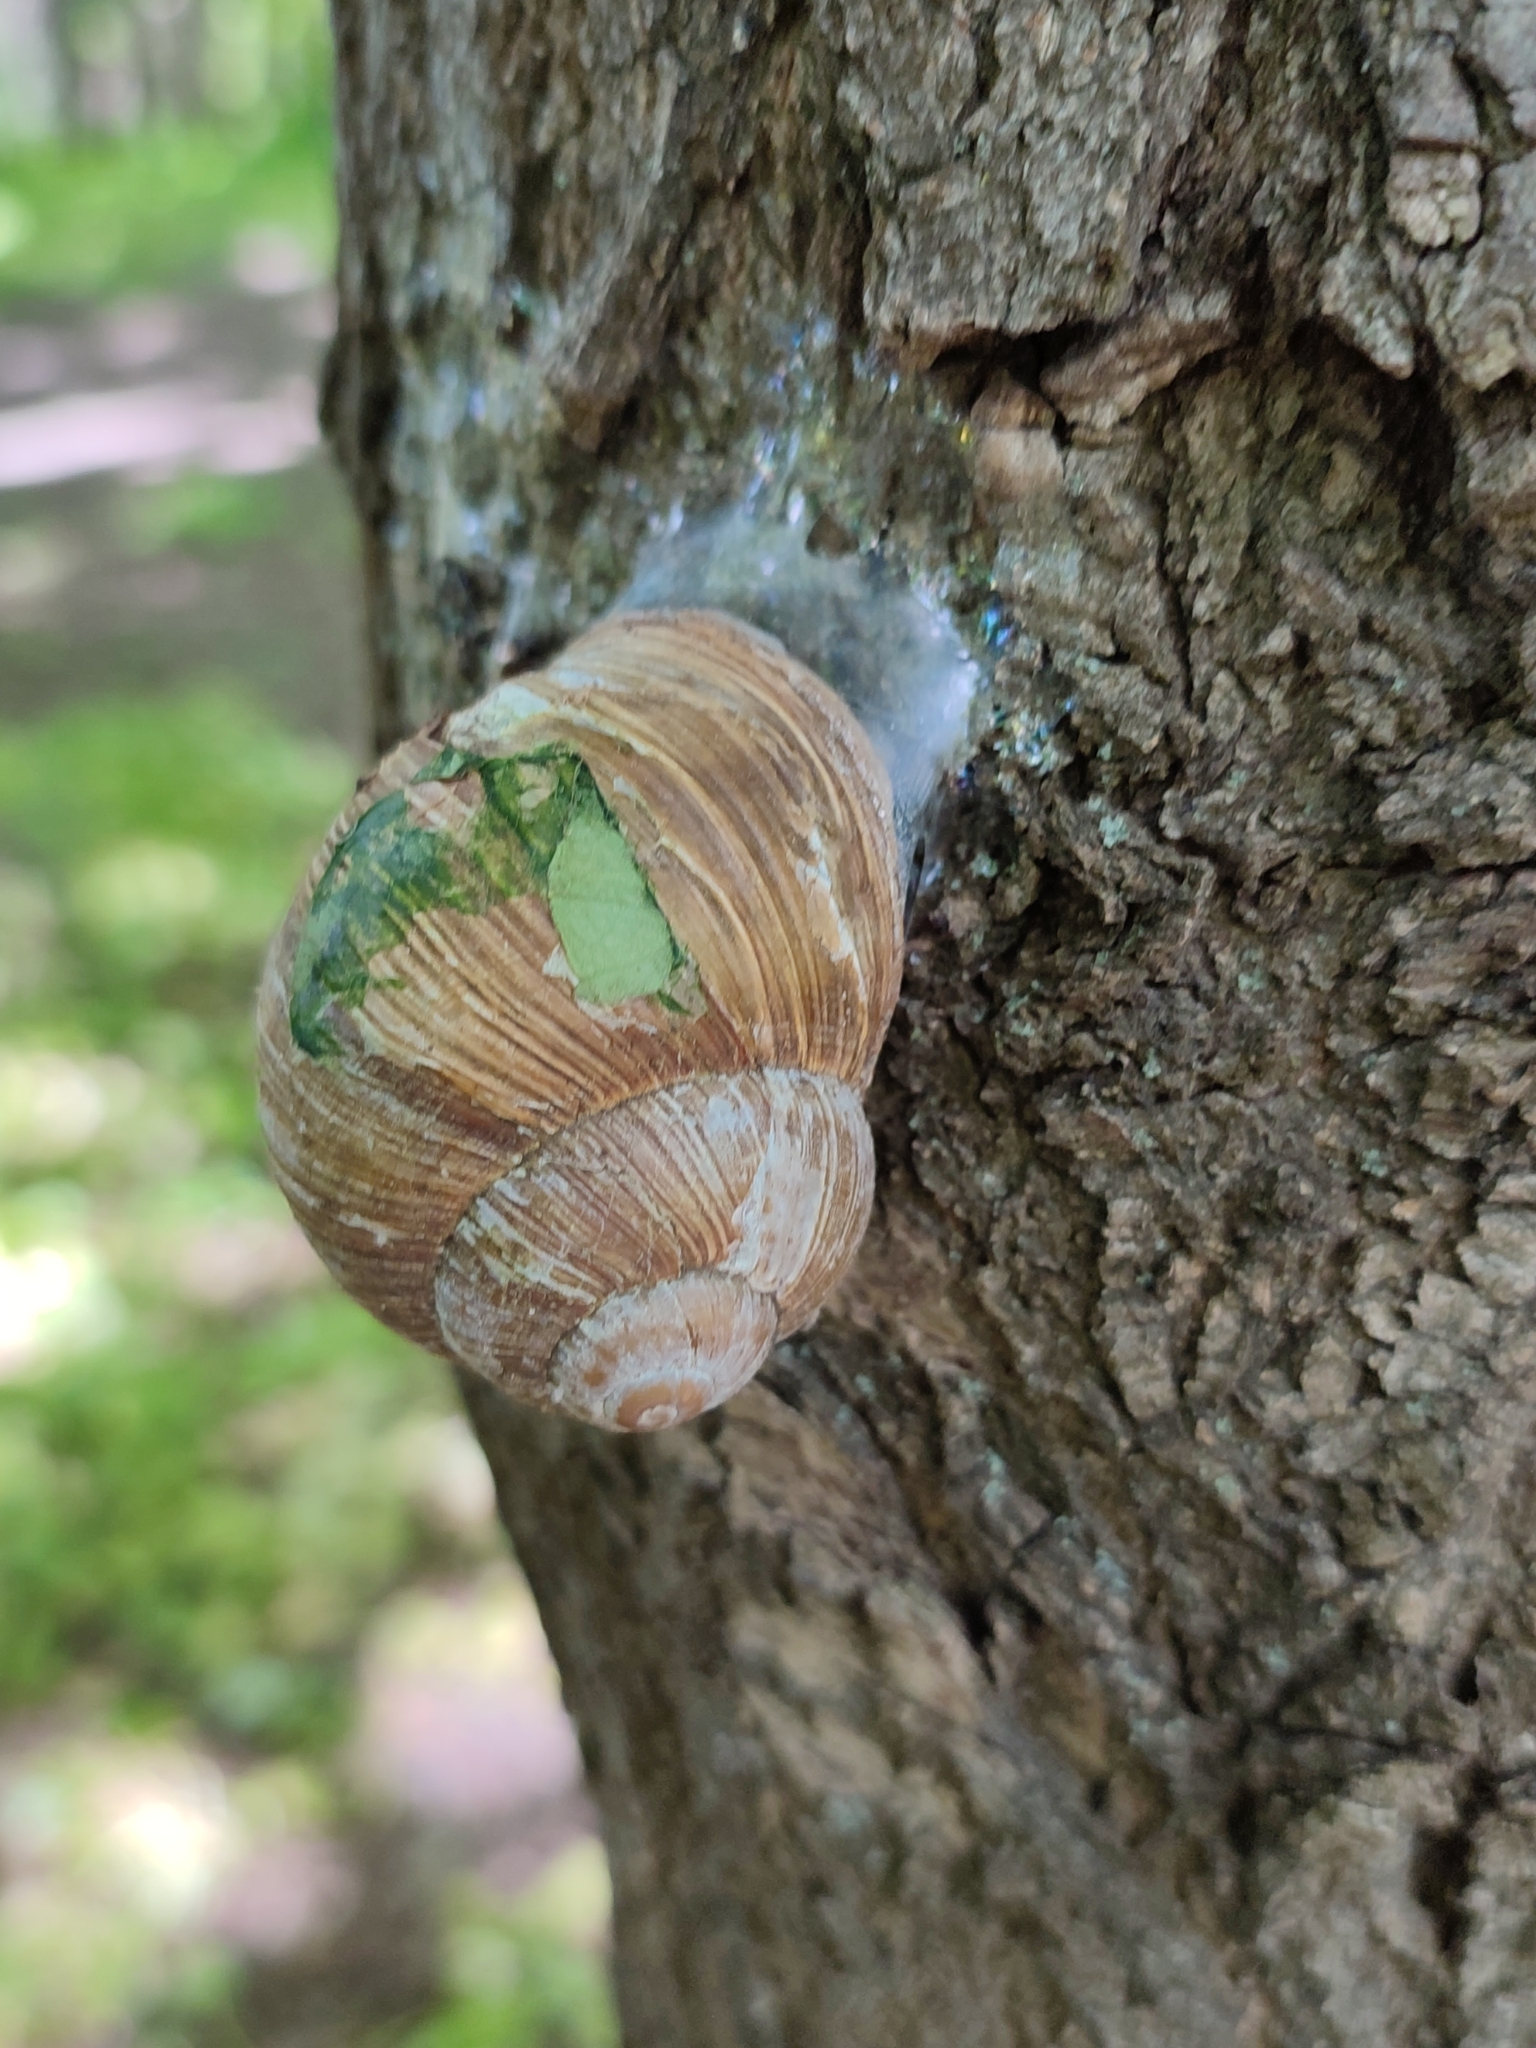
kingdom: Animalia
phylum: Mollusca
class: Gastropoda
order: Stylommatophora
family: Helicidae
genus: Helix
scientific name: Helix pomatia
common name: Roman snail
